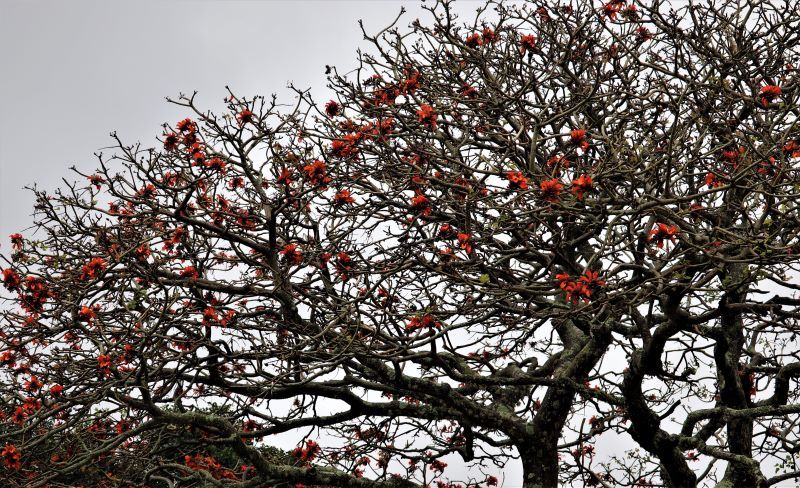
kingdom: Plantae
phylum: Tracheophyta
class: Magnoliopsida
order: Fabales
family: Fabaceae
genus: Erythrina
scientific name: Erythrina caffra
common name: Coast coral tree
